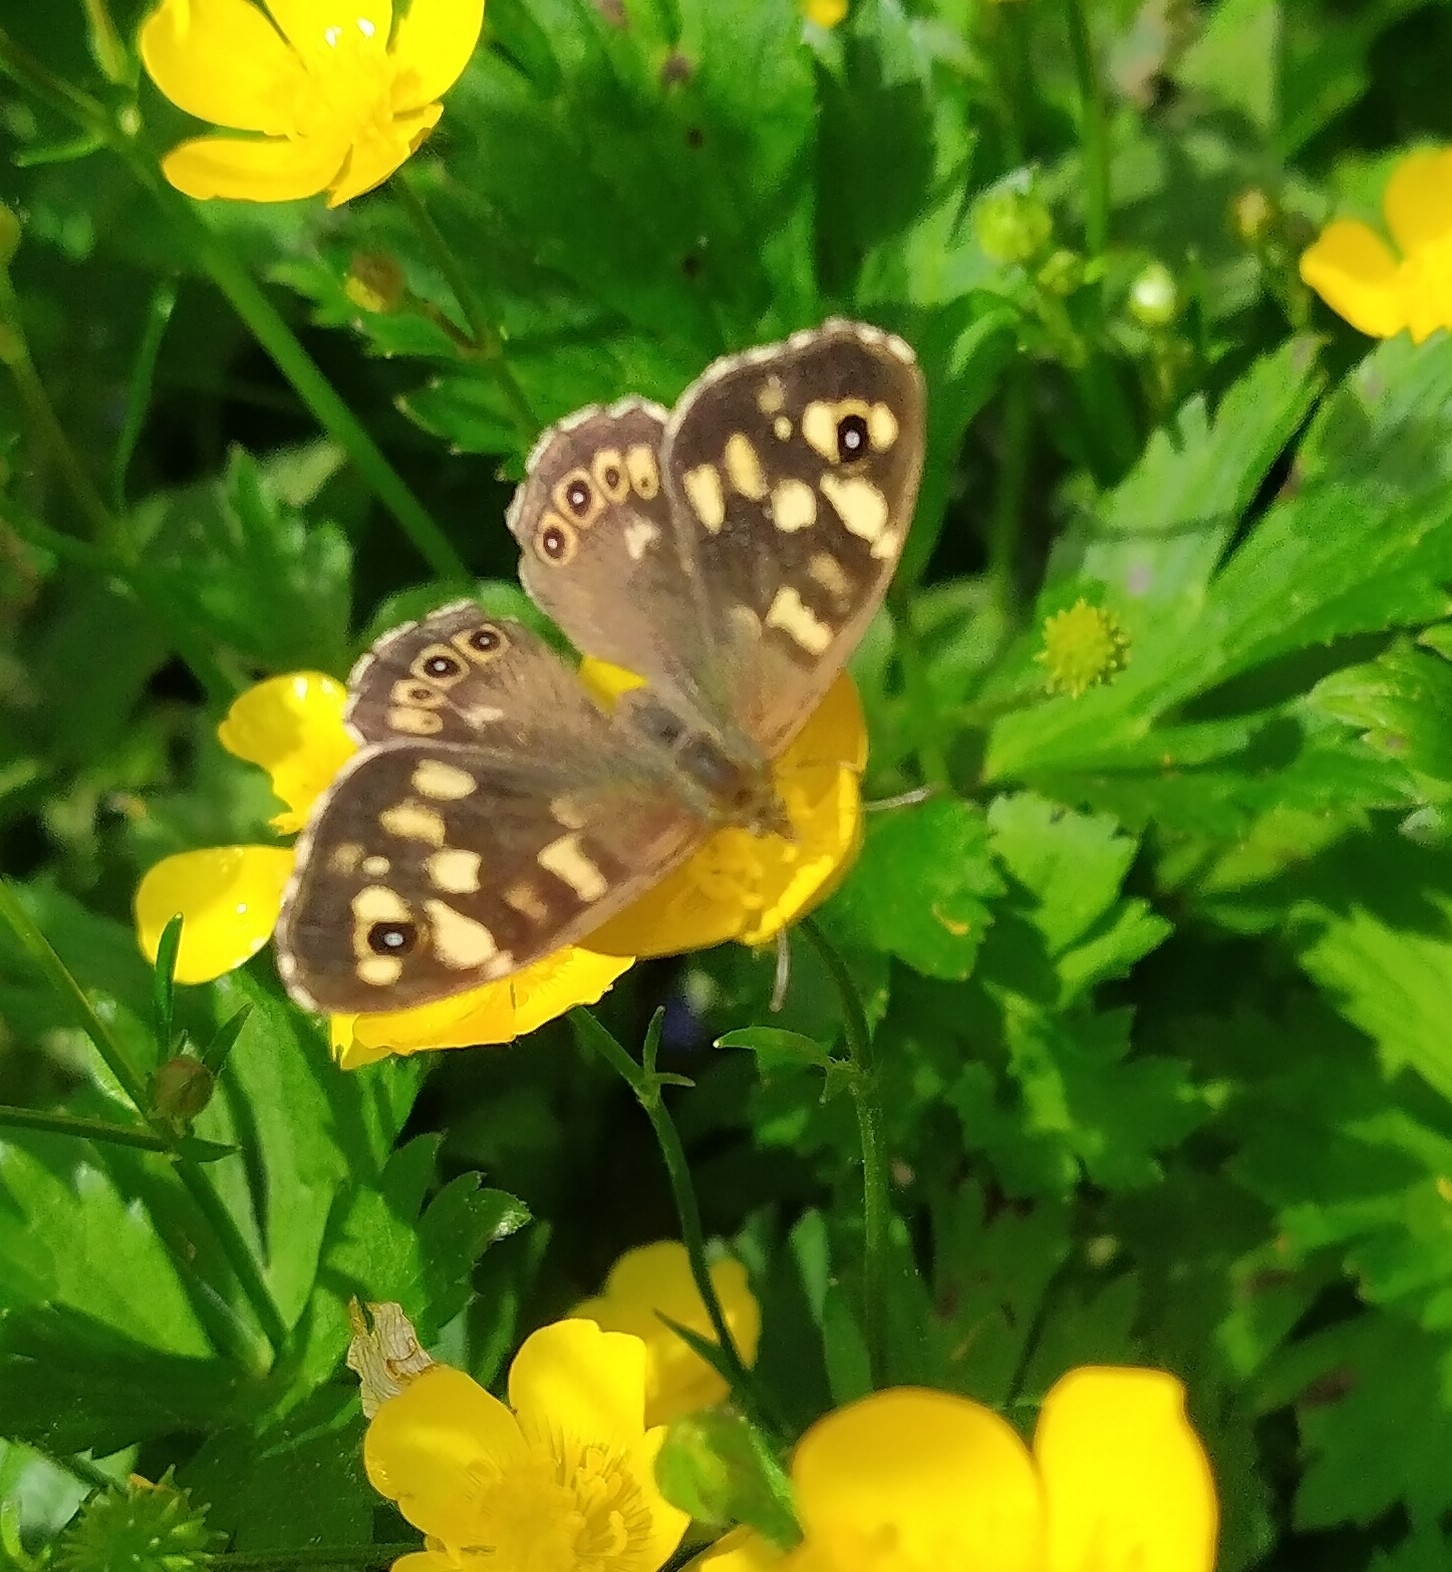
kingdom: Animalia
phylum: Arthropoda
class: Insecta
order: Lepidoptera
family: Nymphalidae
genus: Pararge
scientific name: Pararge aegeria
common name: Speckled wood
